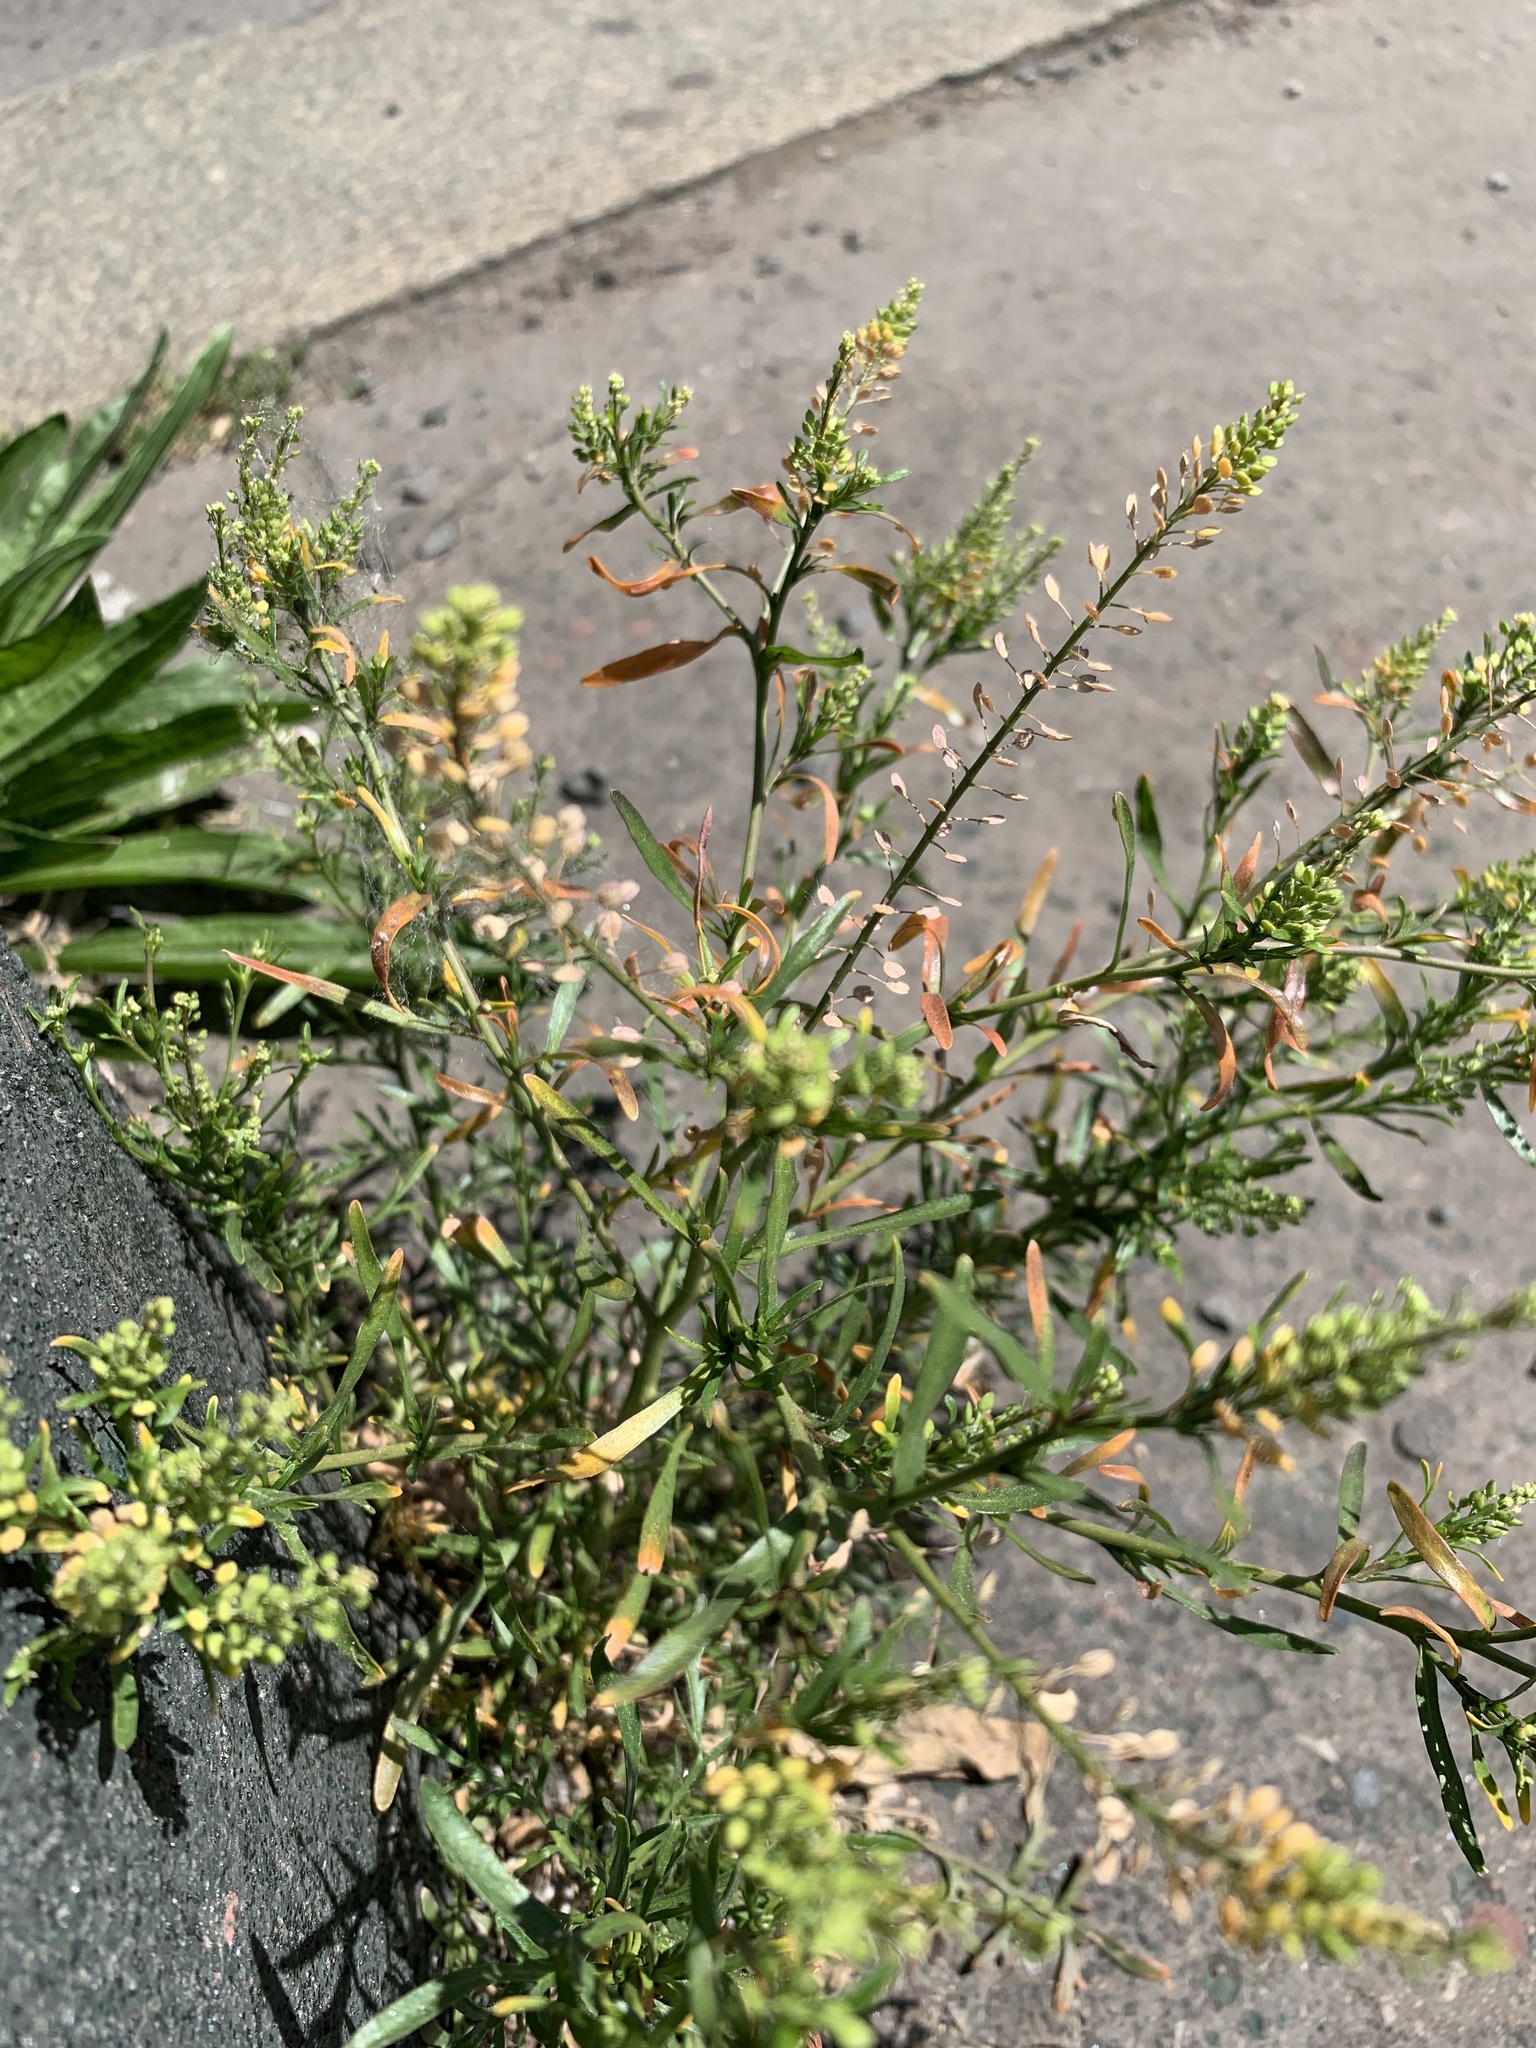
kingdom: Plantae
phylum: Tracheophyta
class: Magnoliopsida
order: Brassicales
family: Brassicaceae
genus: Lepidium
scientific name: Lepidium ruderale
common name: Narrow-leaved pepperwort
